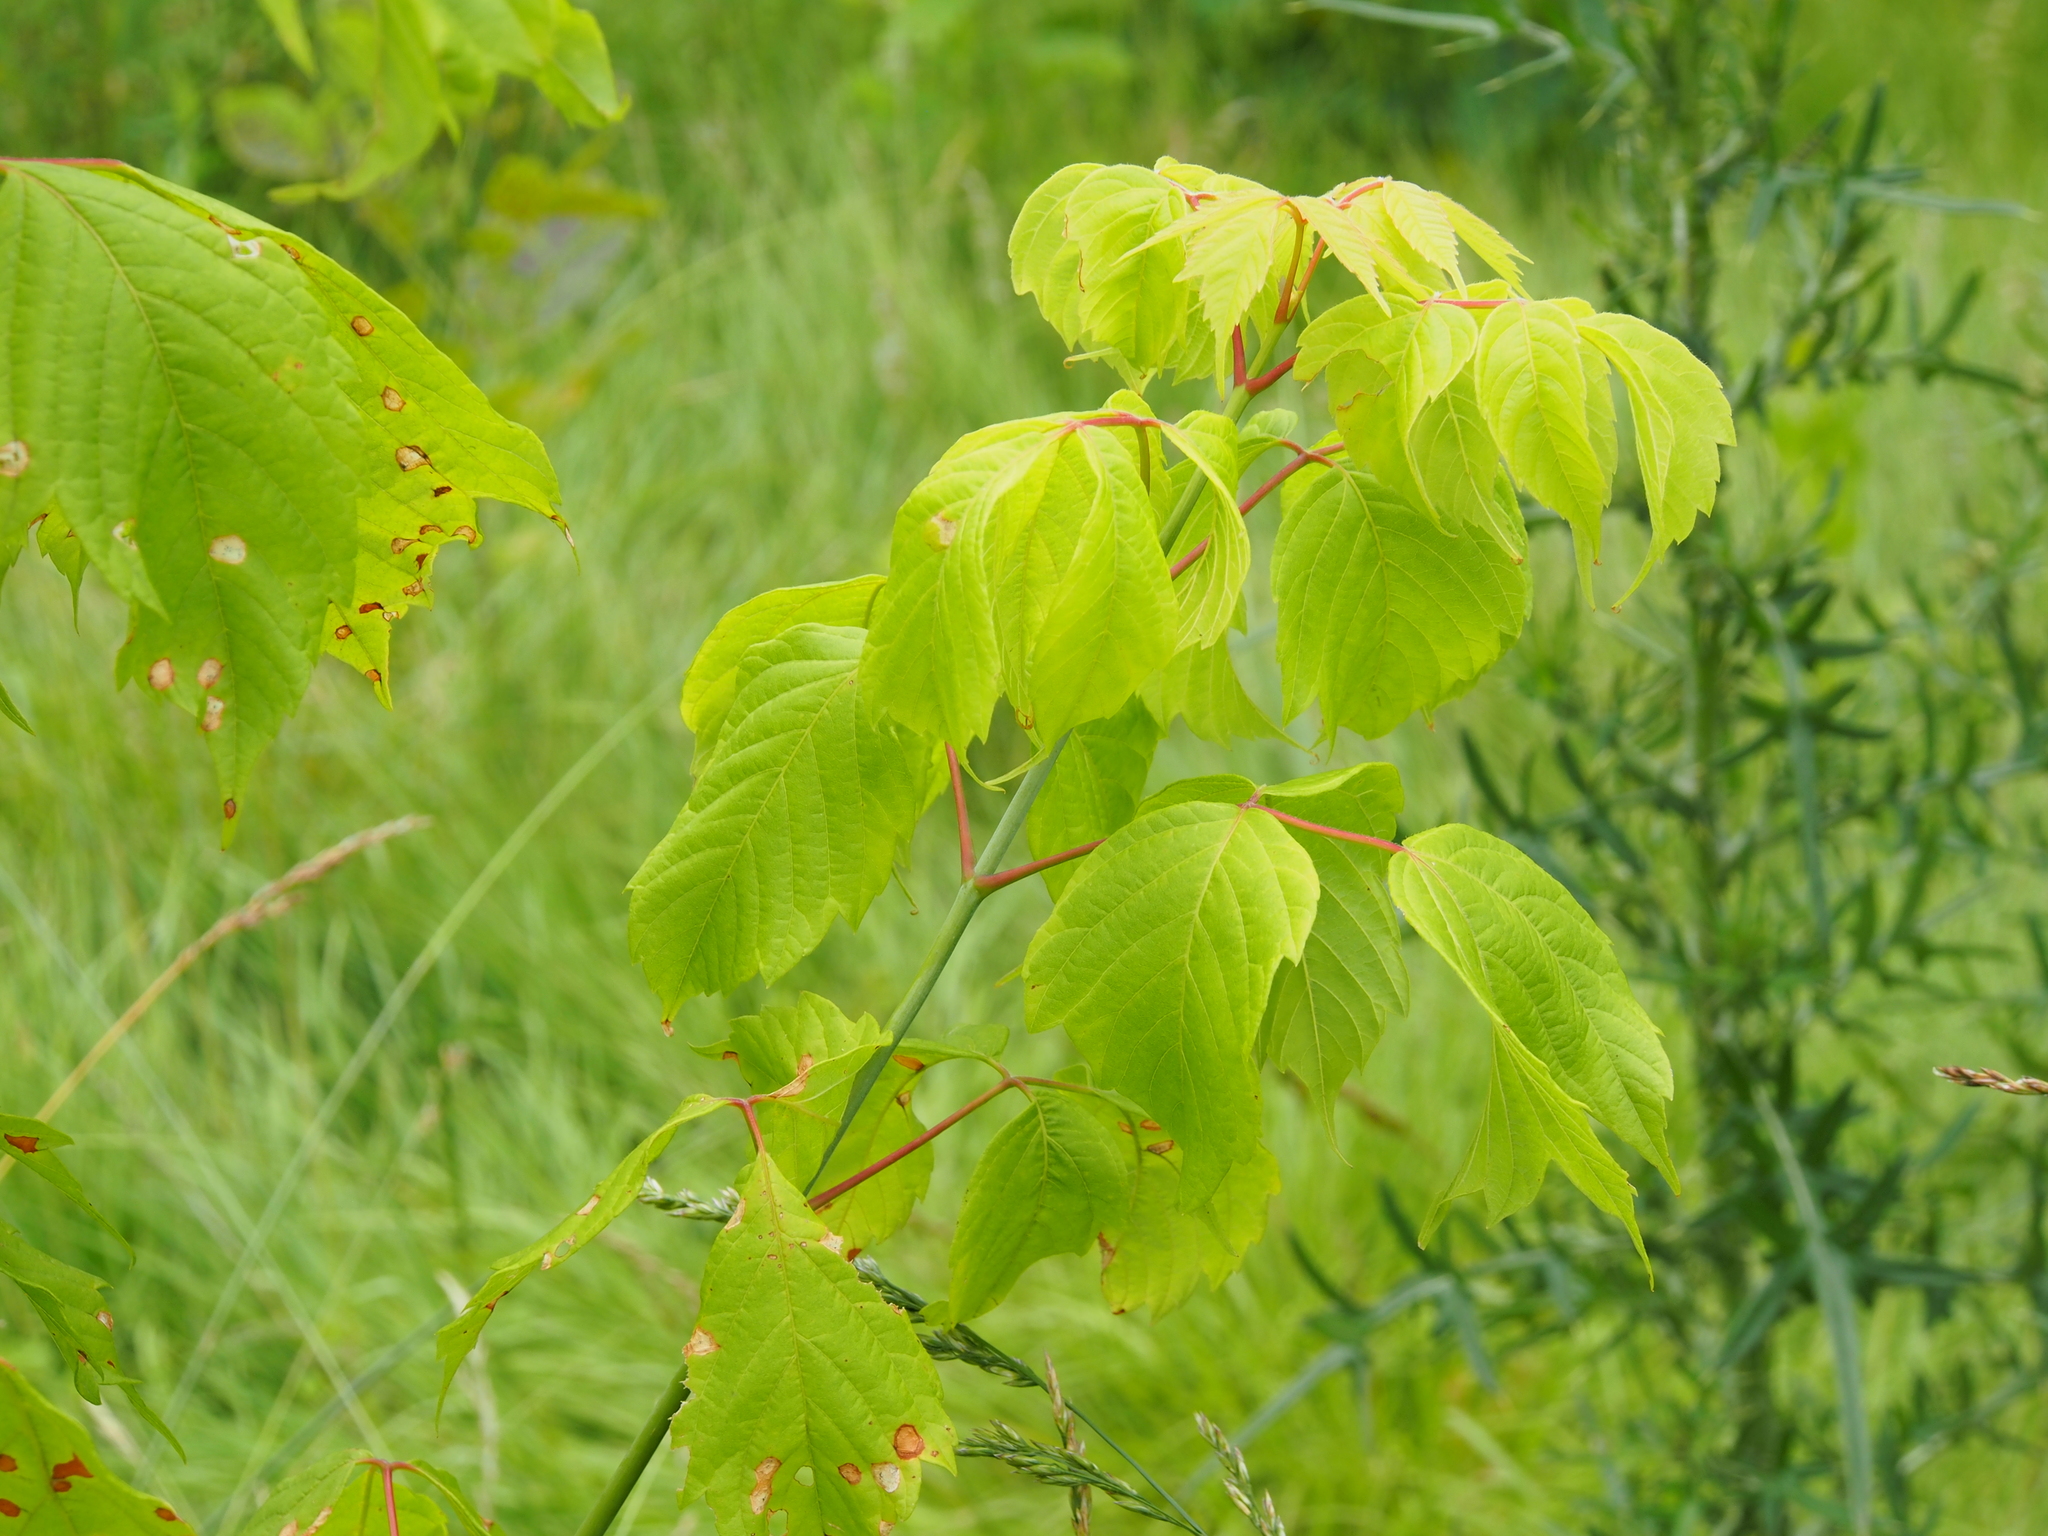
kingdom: Plantae
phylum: Tracheophyta
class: Magnoliopsida
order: Sapindales
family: Sapindaceae
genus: Acer
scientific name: Acer negundo
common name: Ashleaf maple
